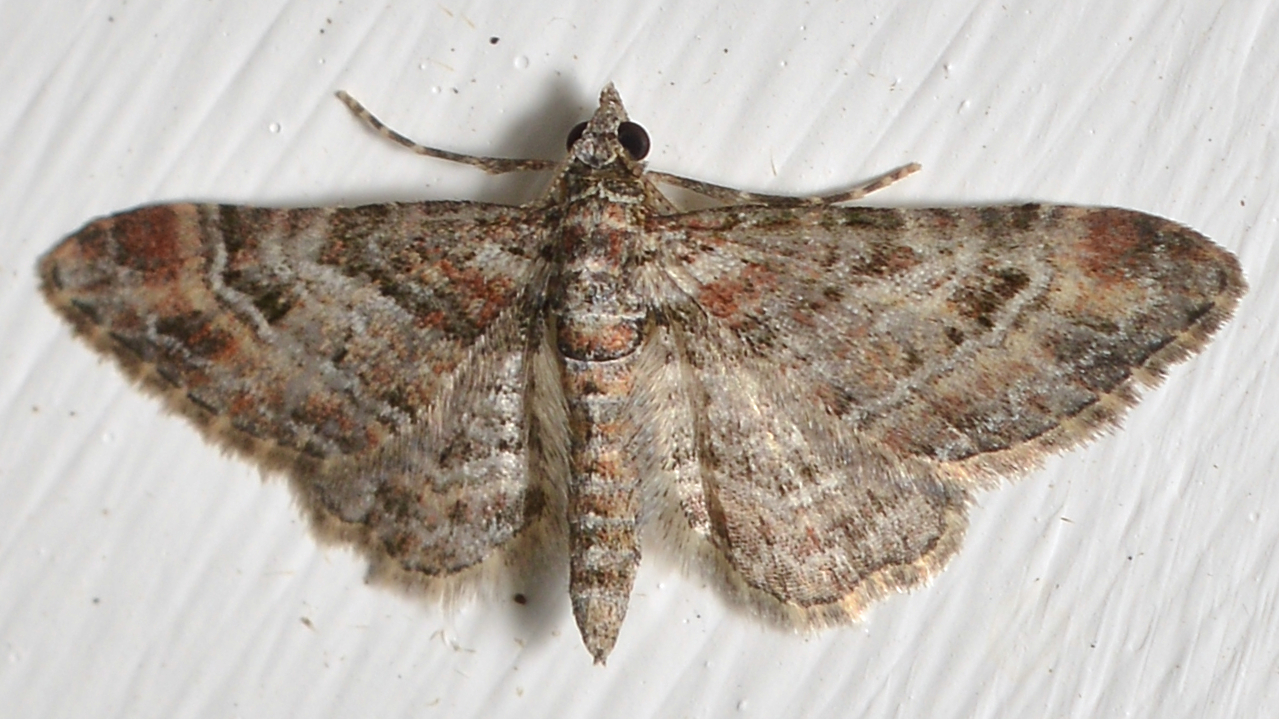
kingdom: Animalia
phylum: Arthropoda
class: Insecta
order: Lepidoptera
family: Geometridae
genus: Gymnoscelis
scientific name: Gymnoscelis rufifasciata
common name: Double-striped pug
